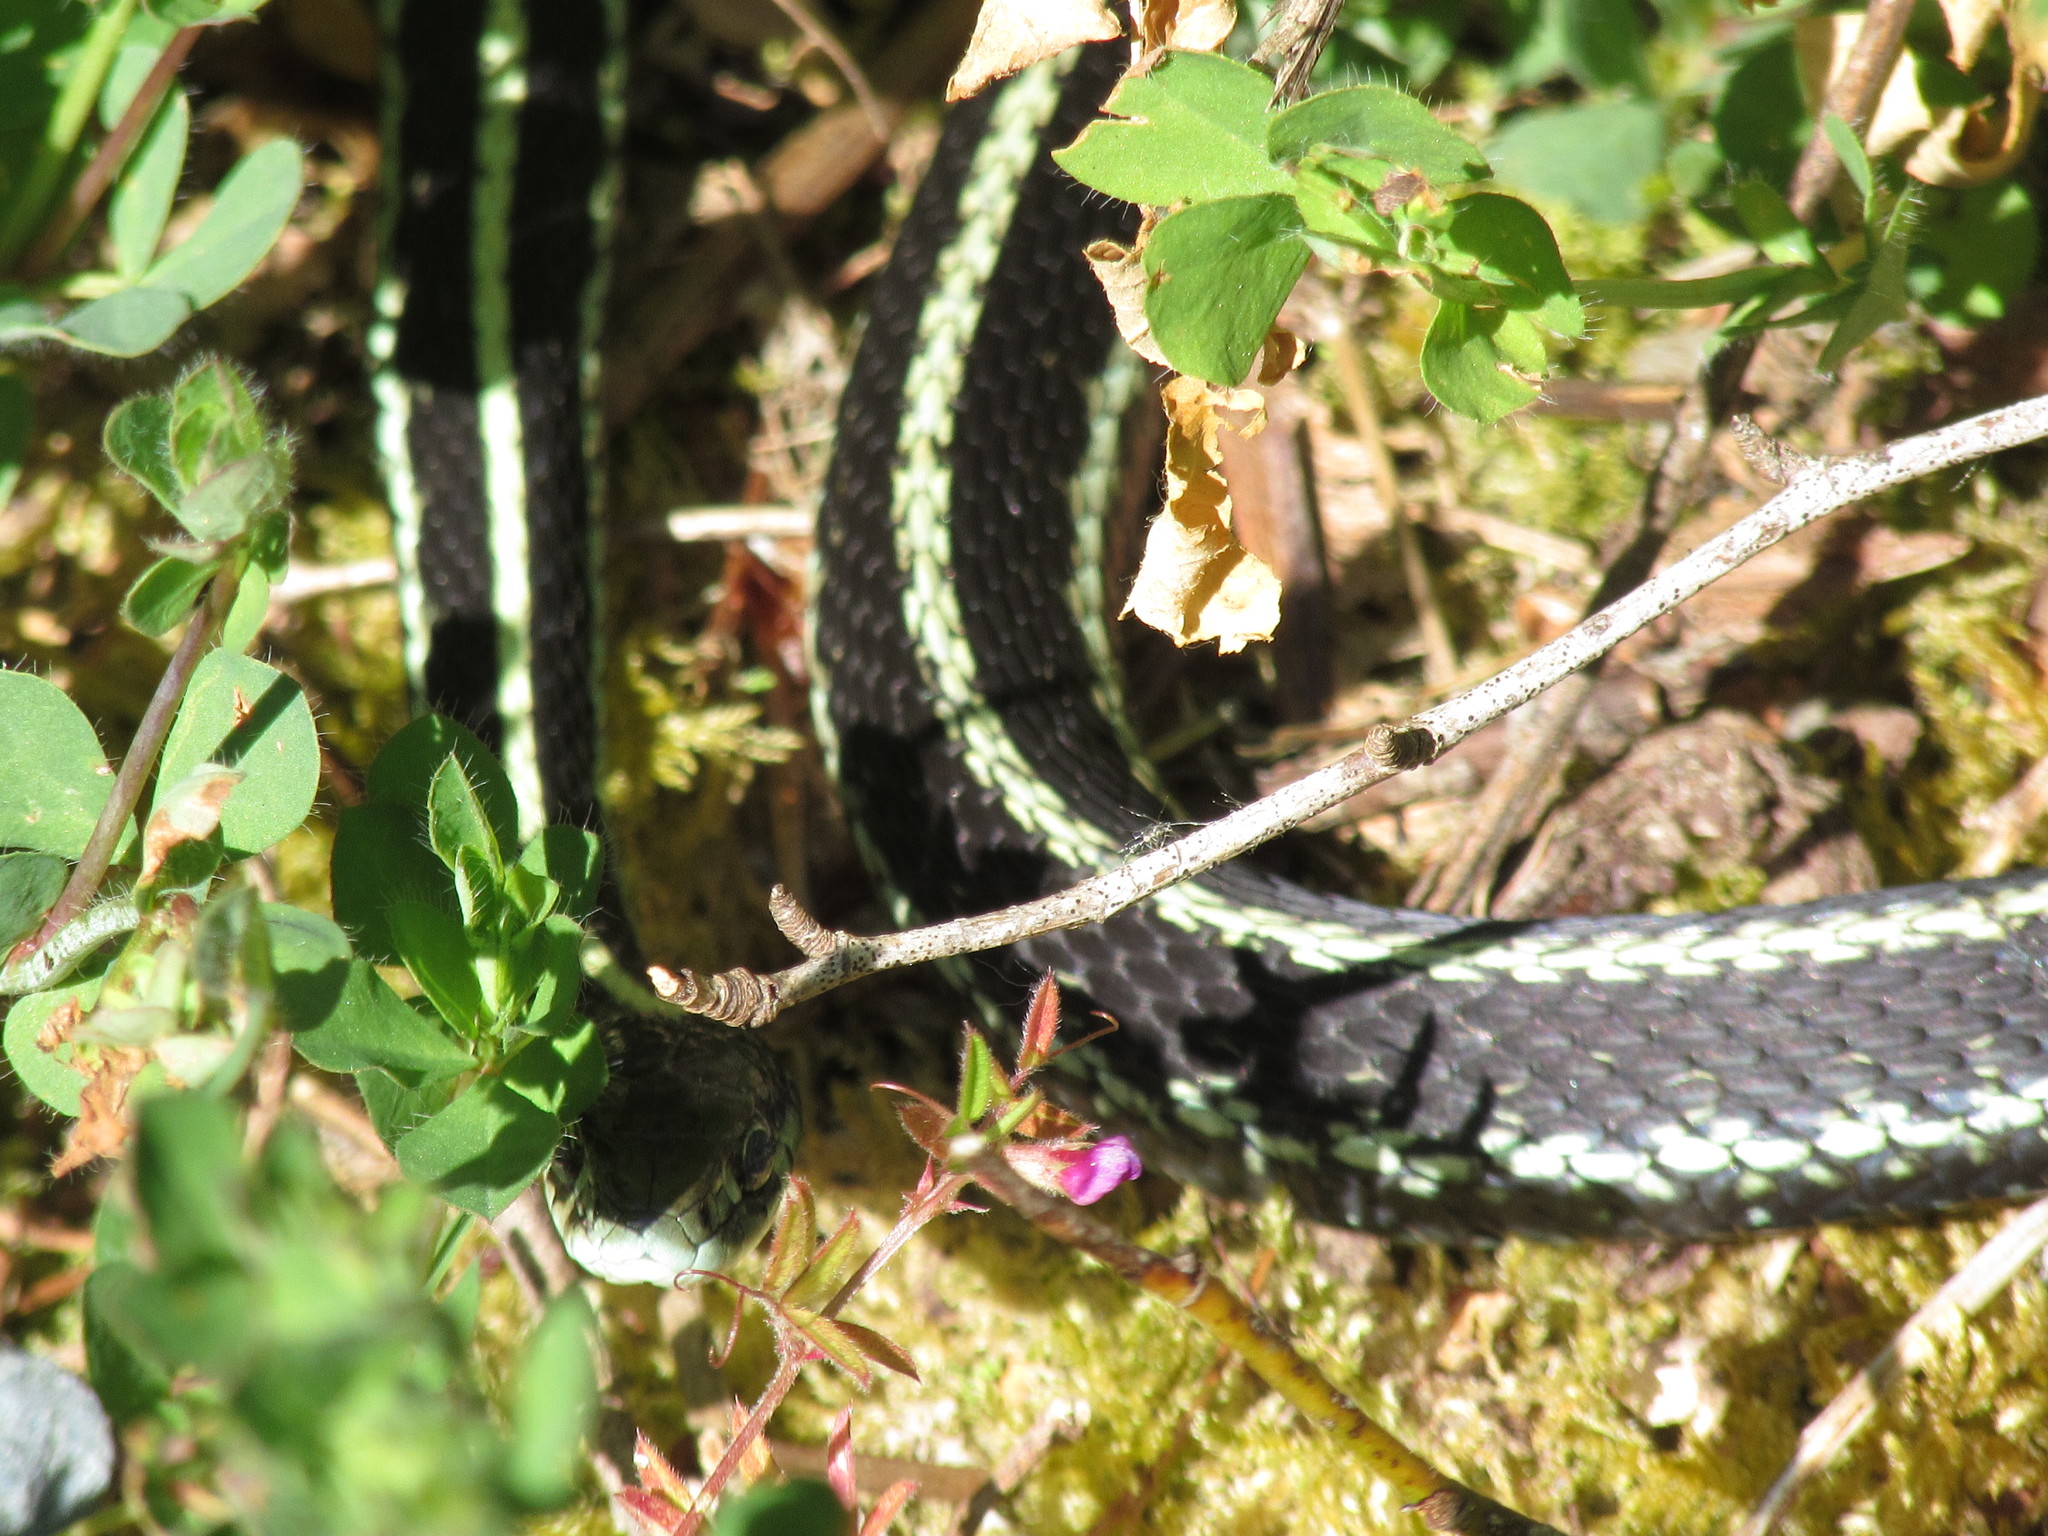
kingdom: Animalia
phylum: Chordata
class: Squamata
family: Colubridae
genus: Thamnophis
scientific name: Thamnophis sirtalis
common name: Common garter snake
